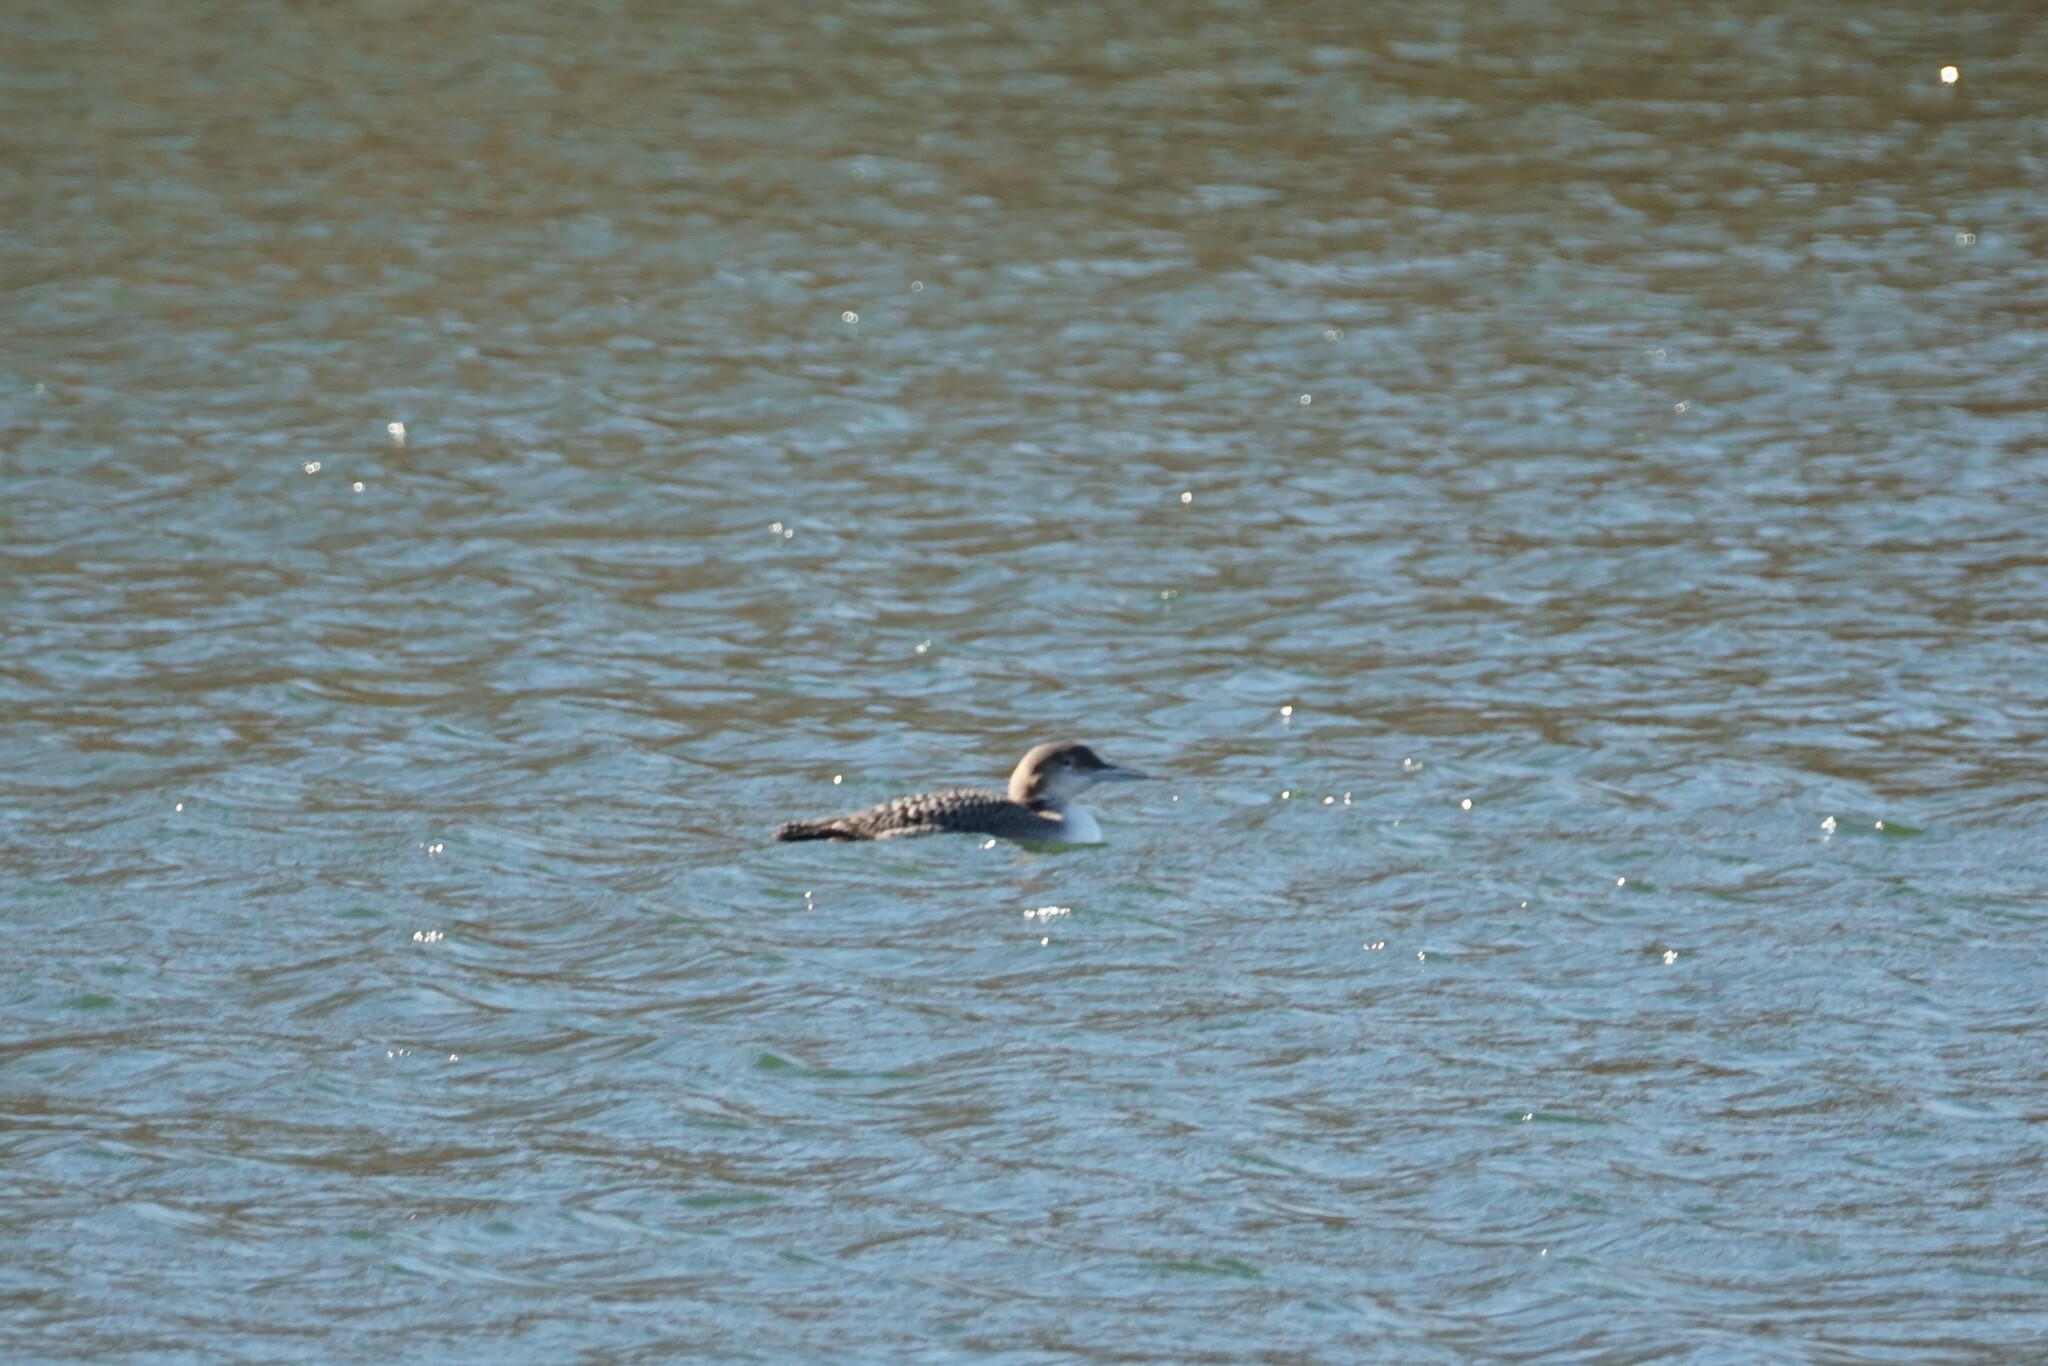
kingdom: Animalia
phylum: Chordata
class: Aves
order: Gaviiformes
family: Gaviidae
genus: Gavia
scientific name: Gavia immer
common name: Common loon
